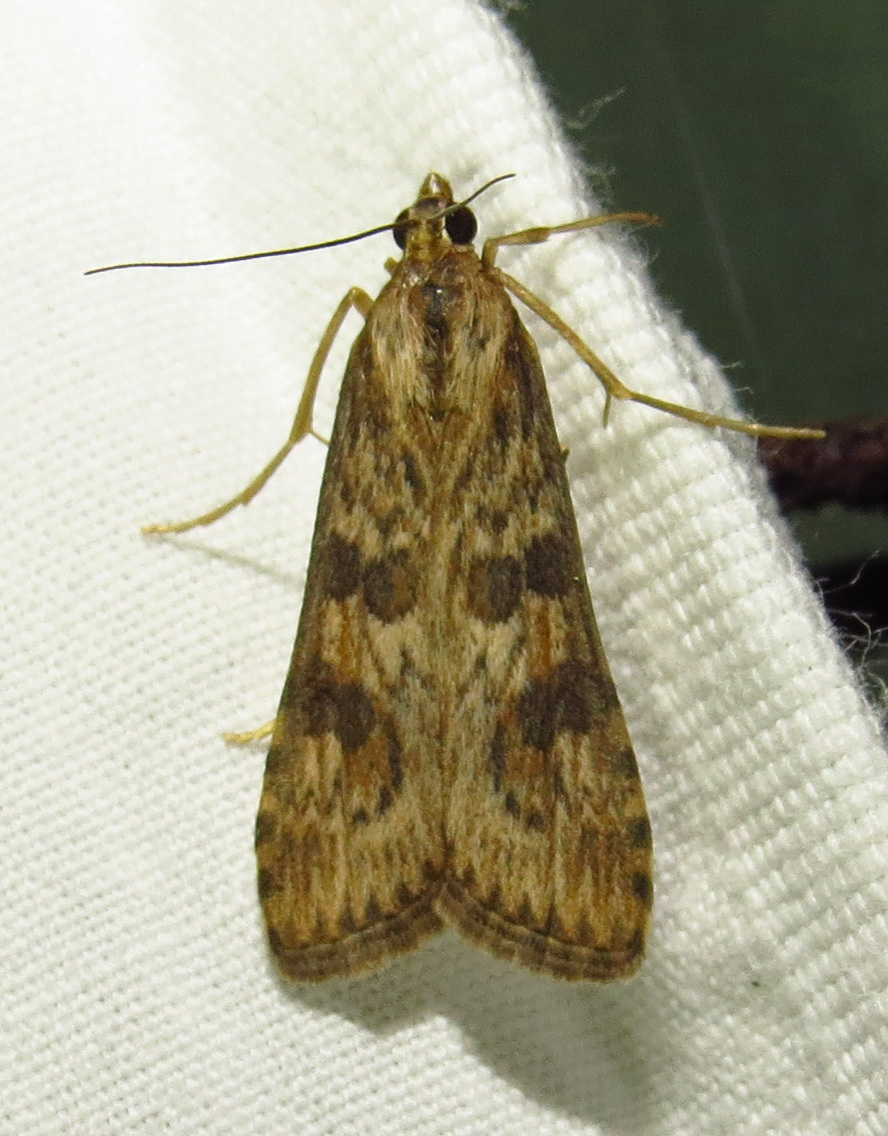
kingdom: Animalia
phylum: Arthropoda
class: Insecta
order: Lepidoptera
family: Crambidae
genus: Nomophila
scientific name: Nomophila nearctica
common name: American rush veneer
